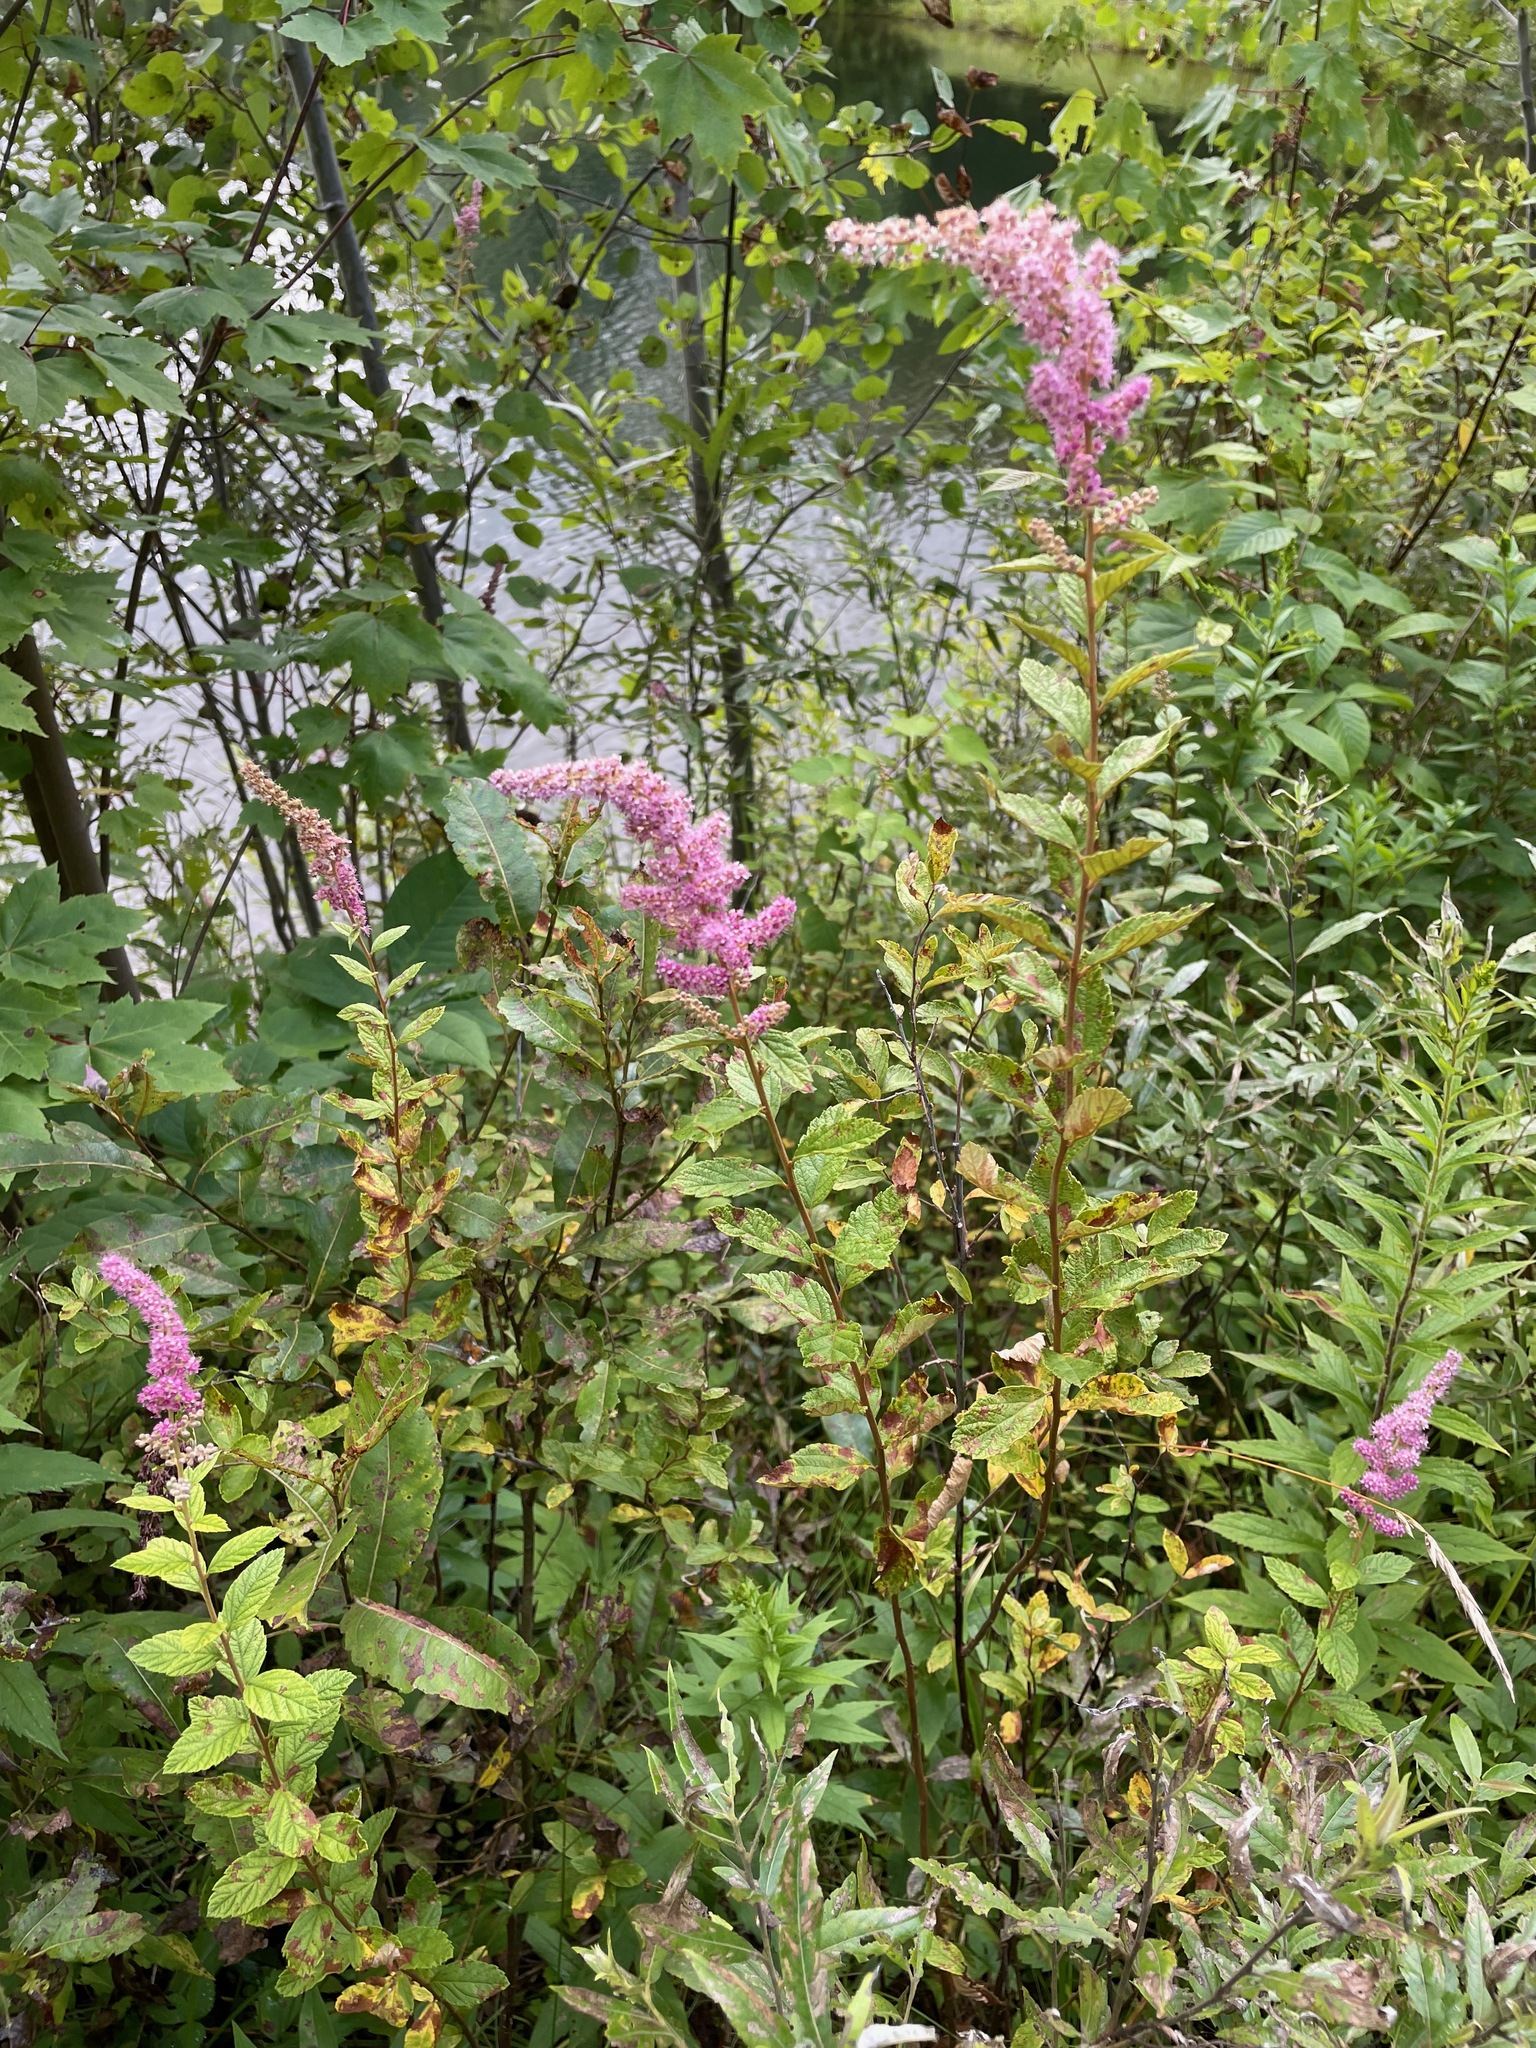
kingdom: Plantae
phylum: Tracheophyta
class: Magnoliopsida
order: Rosales
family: Rosaceae
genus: Spiraea
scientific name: Spiraea tomentosa
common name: Hardhack
